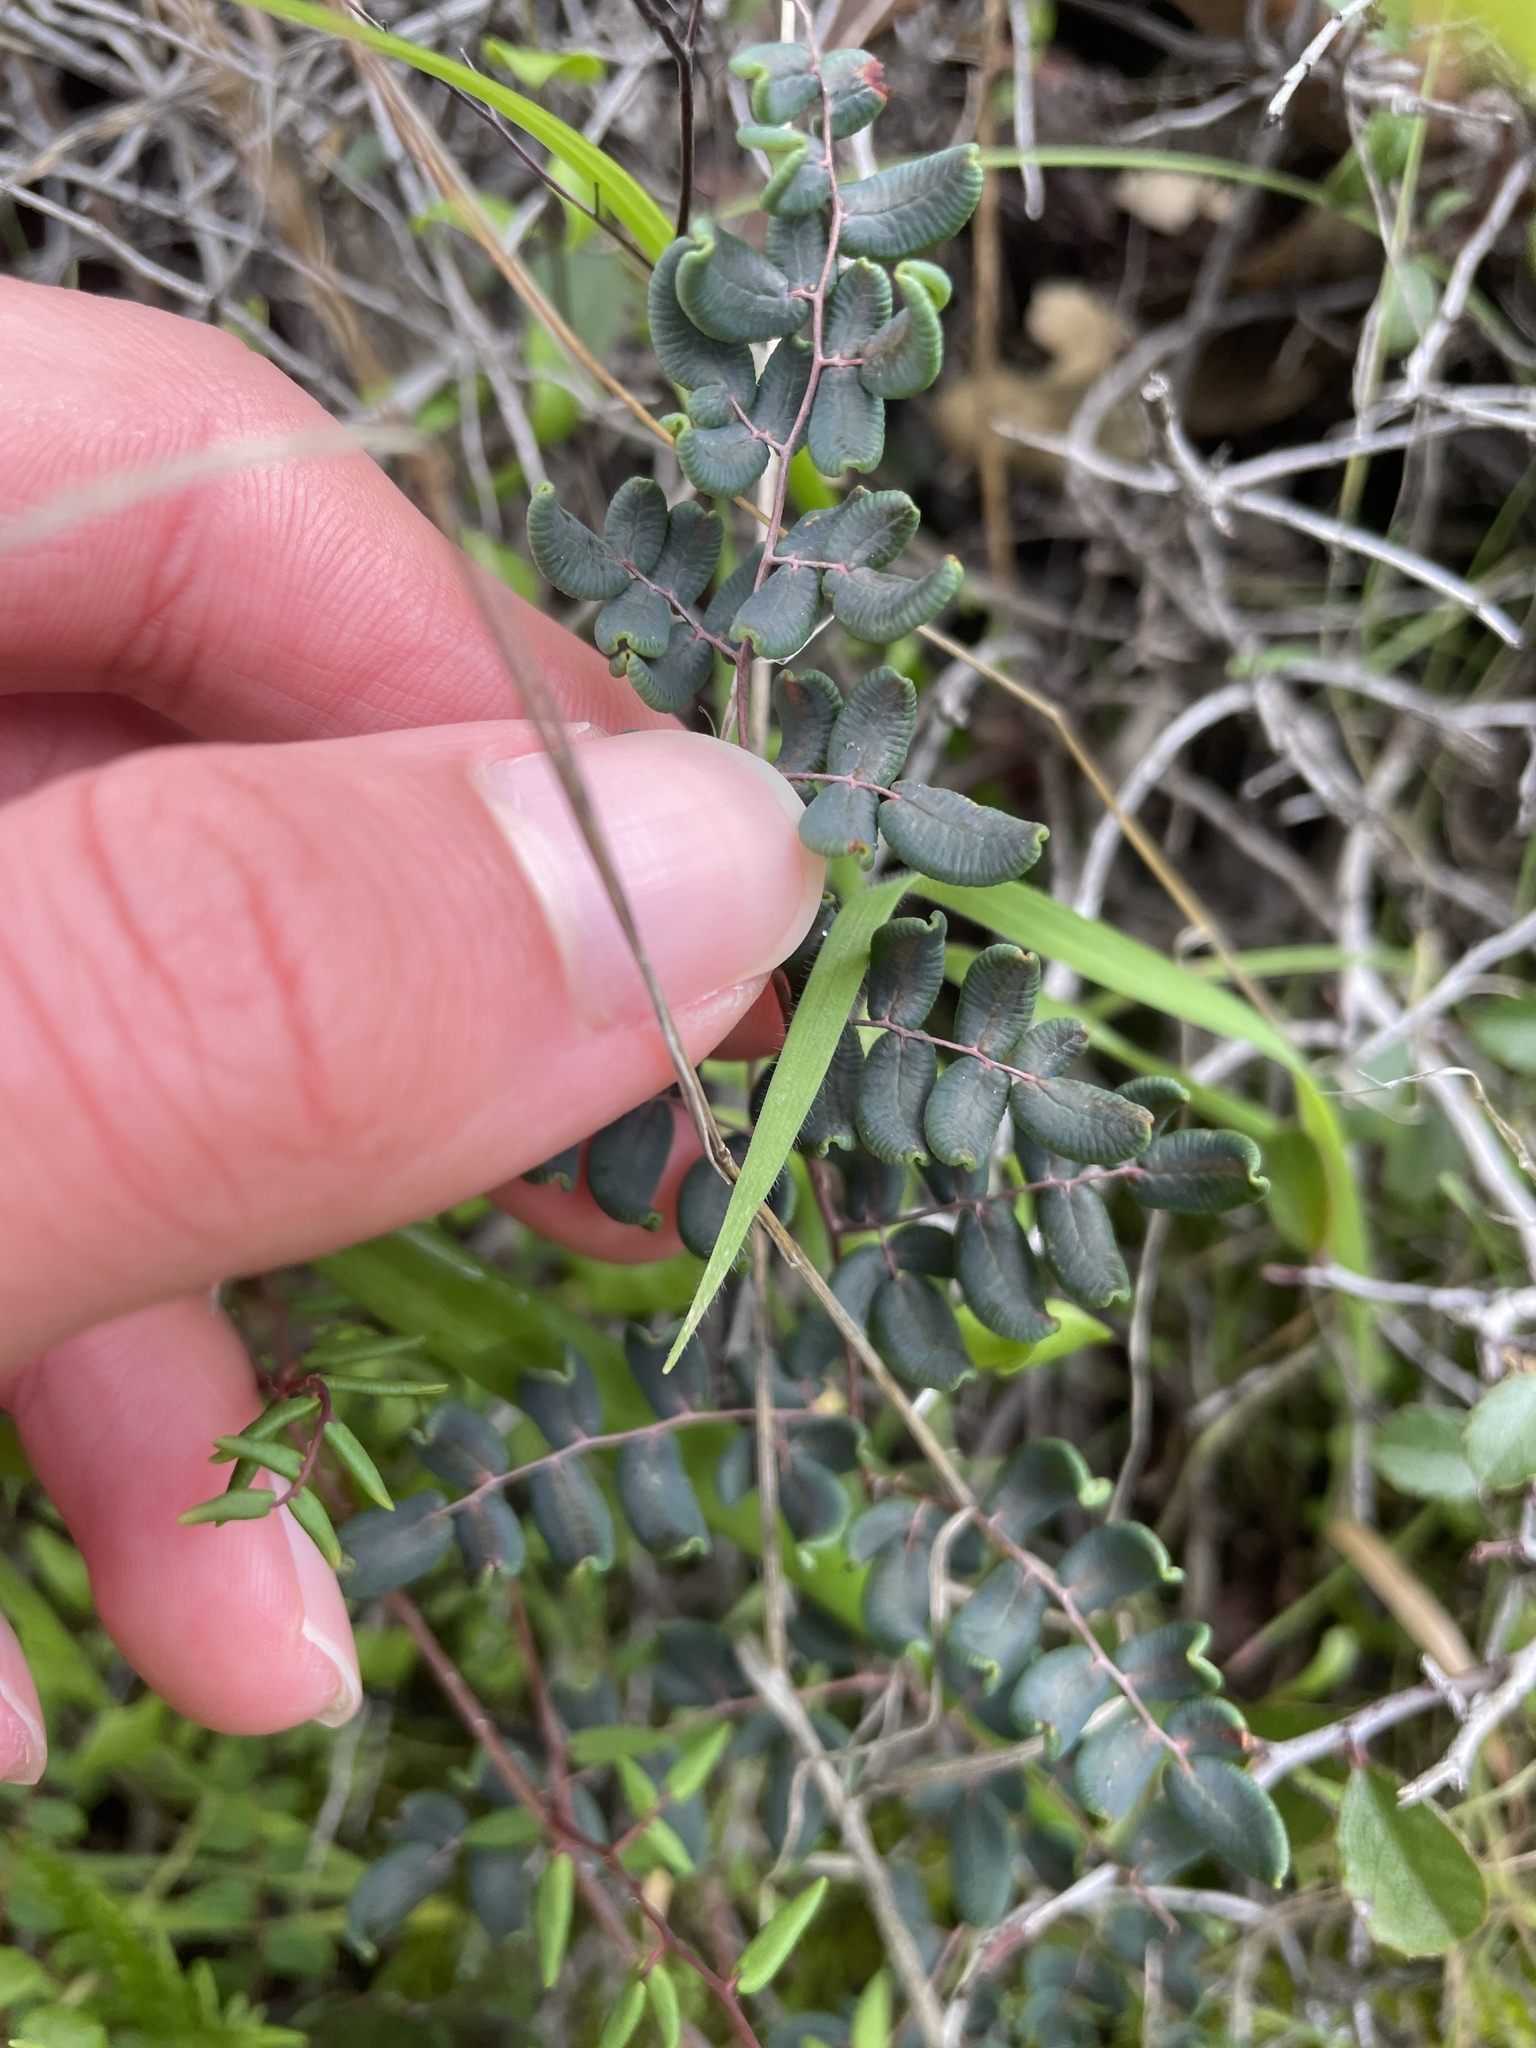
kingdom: Plantae
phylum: Tracheophyta
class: Polypodiopsida
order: Polypodiales
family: Pteridaceae
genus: Pellaea
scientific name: Pellaea andromedifolia
